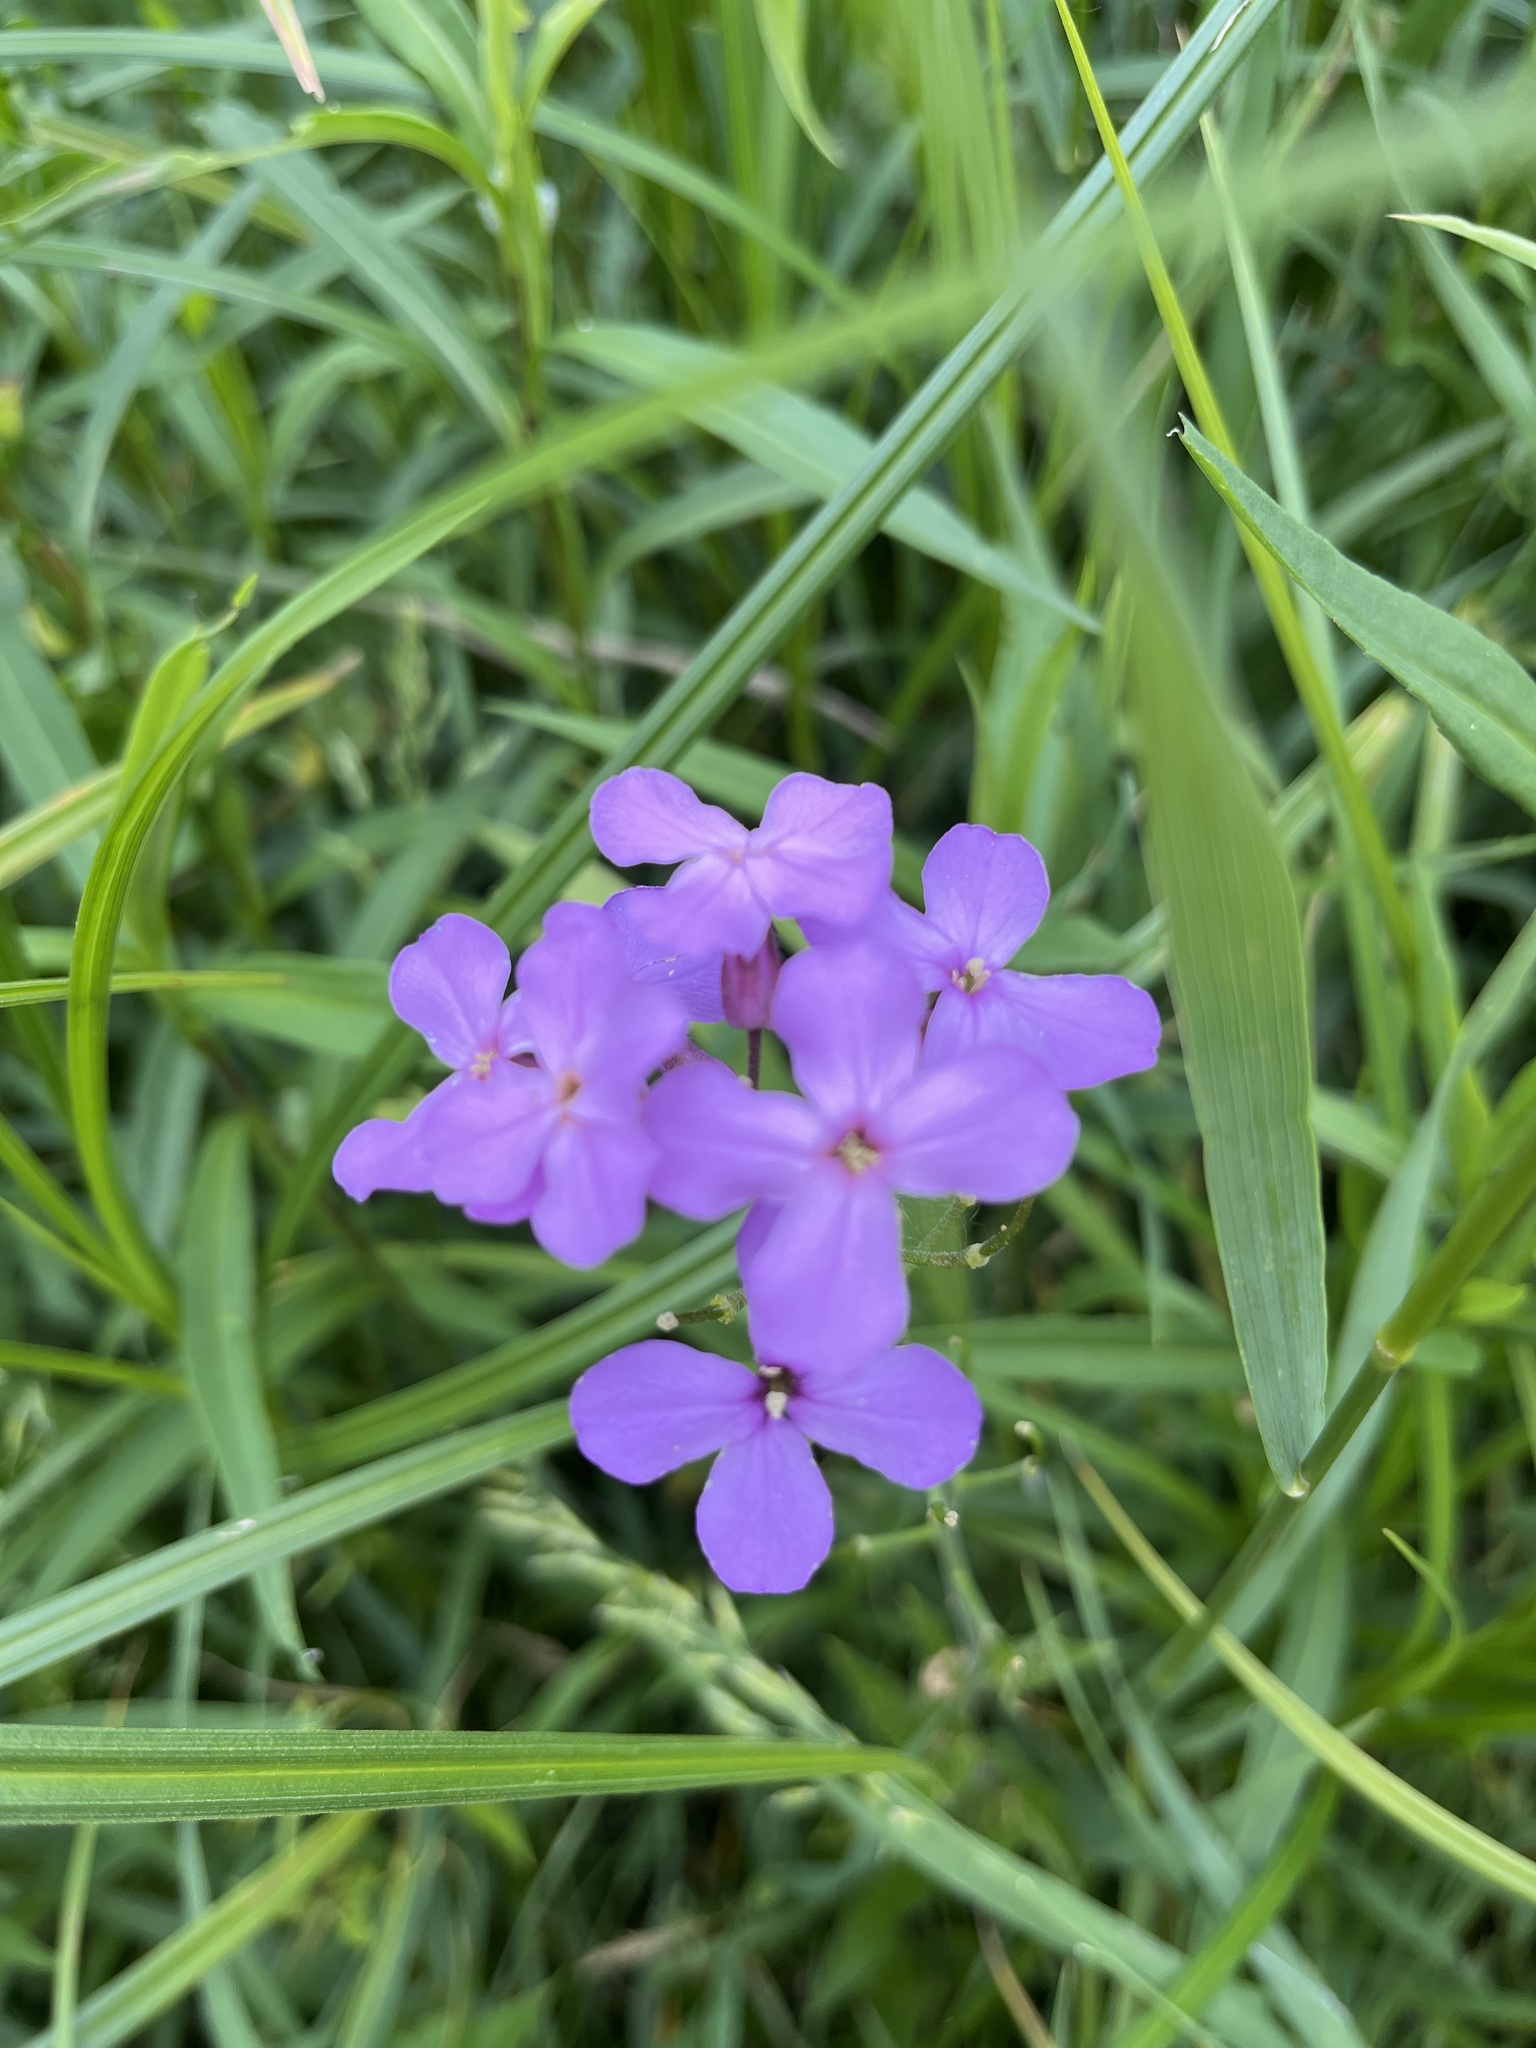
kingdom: Plantae
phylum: Tracheophyta
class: Magnoliopsida
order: Brassicales
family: Brassicaceae
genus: Hesperis
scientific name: Hesperis matronalis
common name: Dame's-violet
